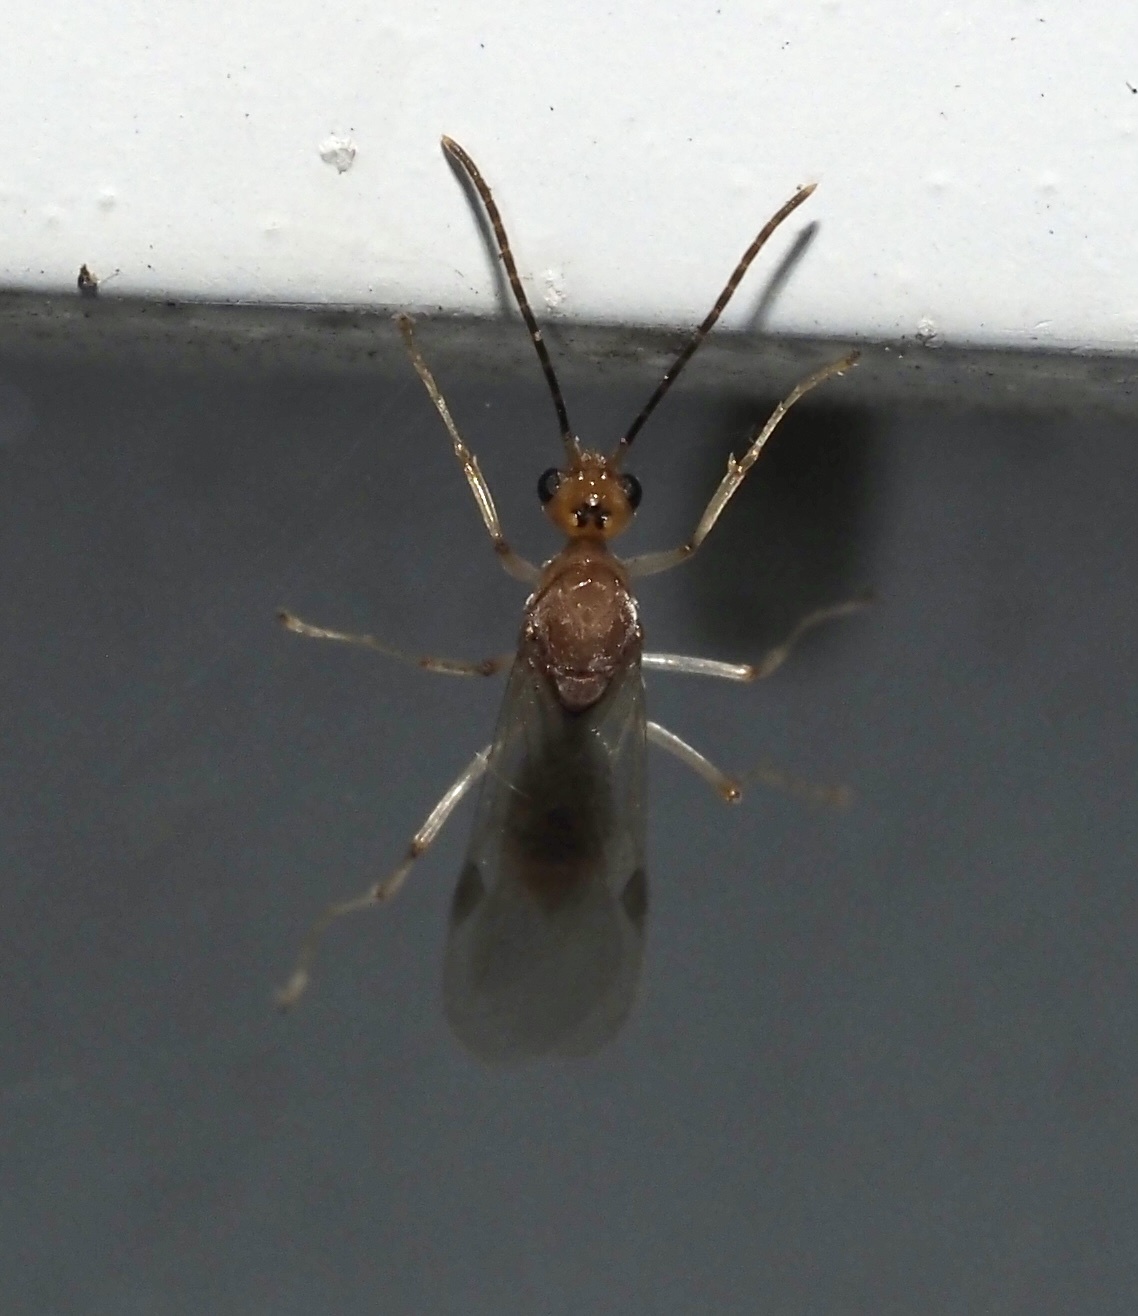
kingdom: Animalia
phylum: Arthropoda
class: Insecta
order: Hymenoptera
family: Formicidae
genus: Pachycondyla
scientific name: Pachycondyla chinensis
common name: Asian needle ant
